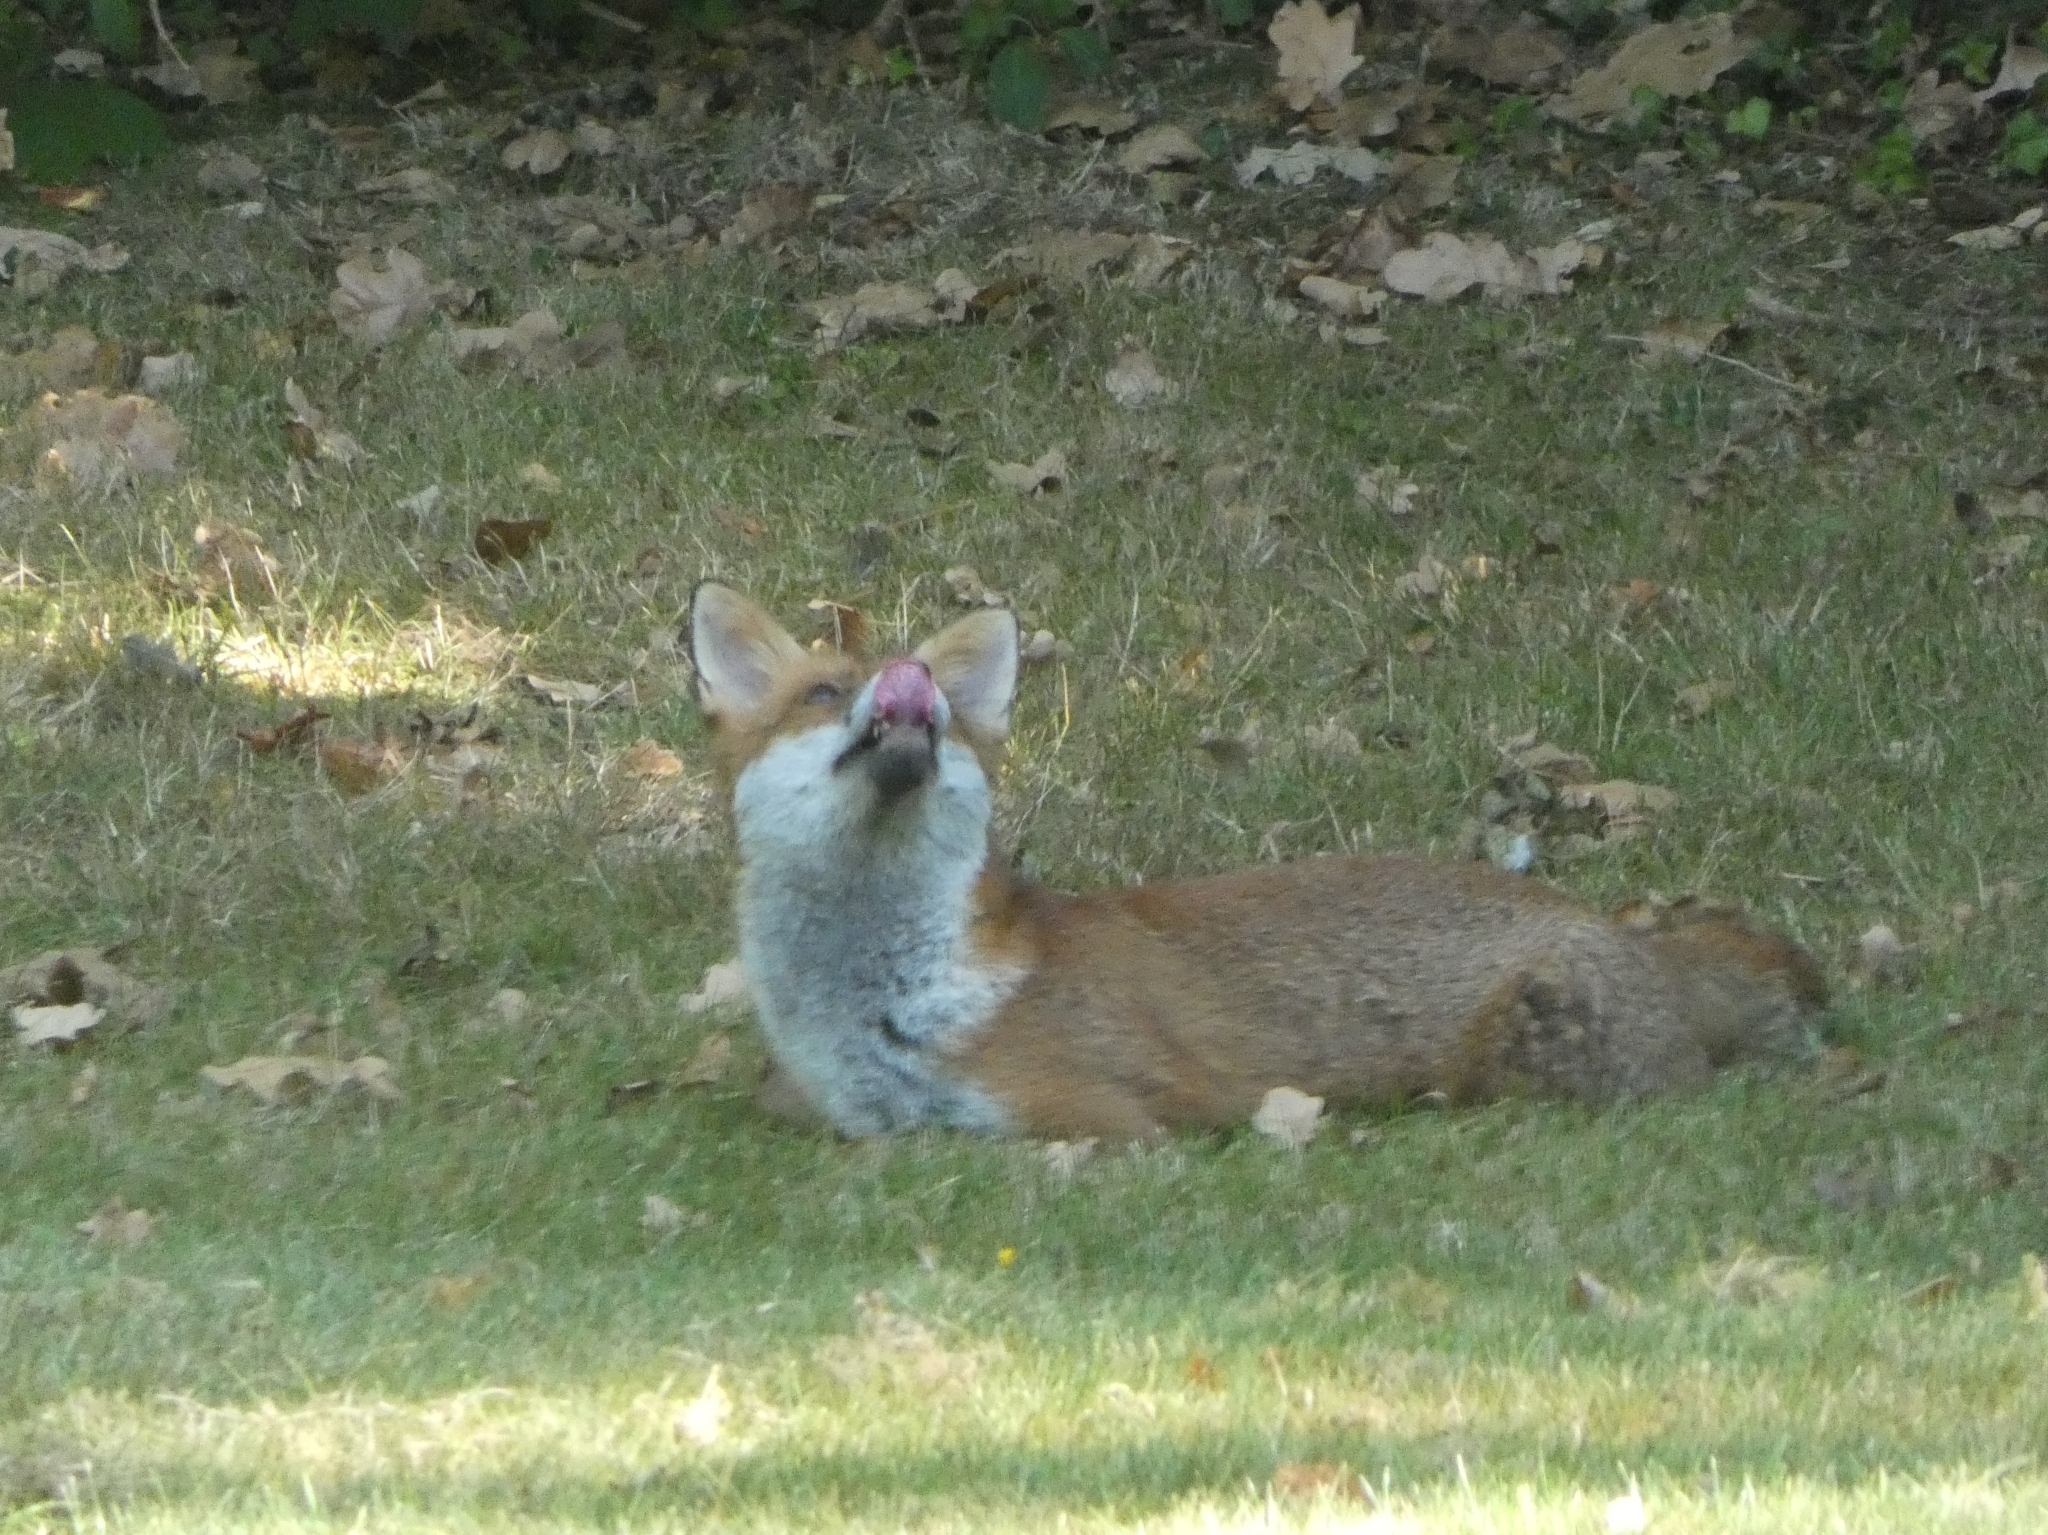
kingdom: Animalia
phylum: Chordata
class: Mammalia
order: Carnivora
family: Canidae
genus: Vulpes
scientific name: Vulpes vulpes
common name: Red fox
